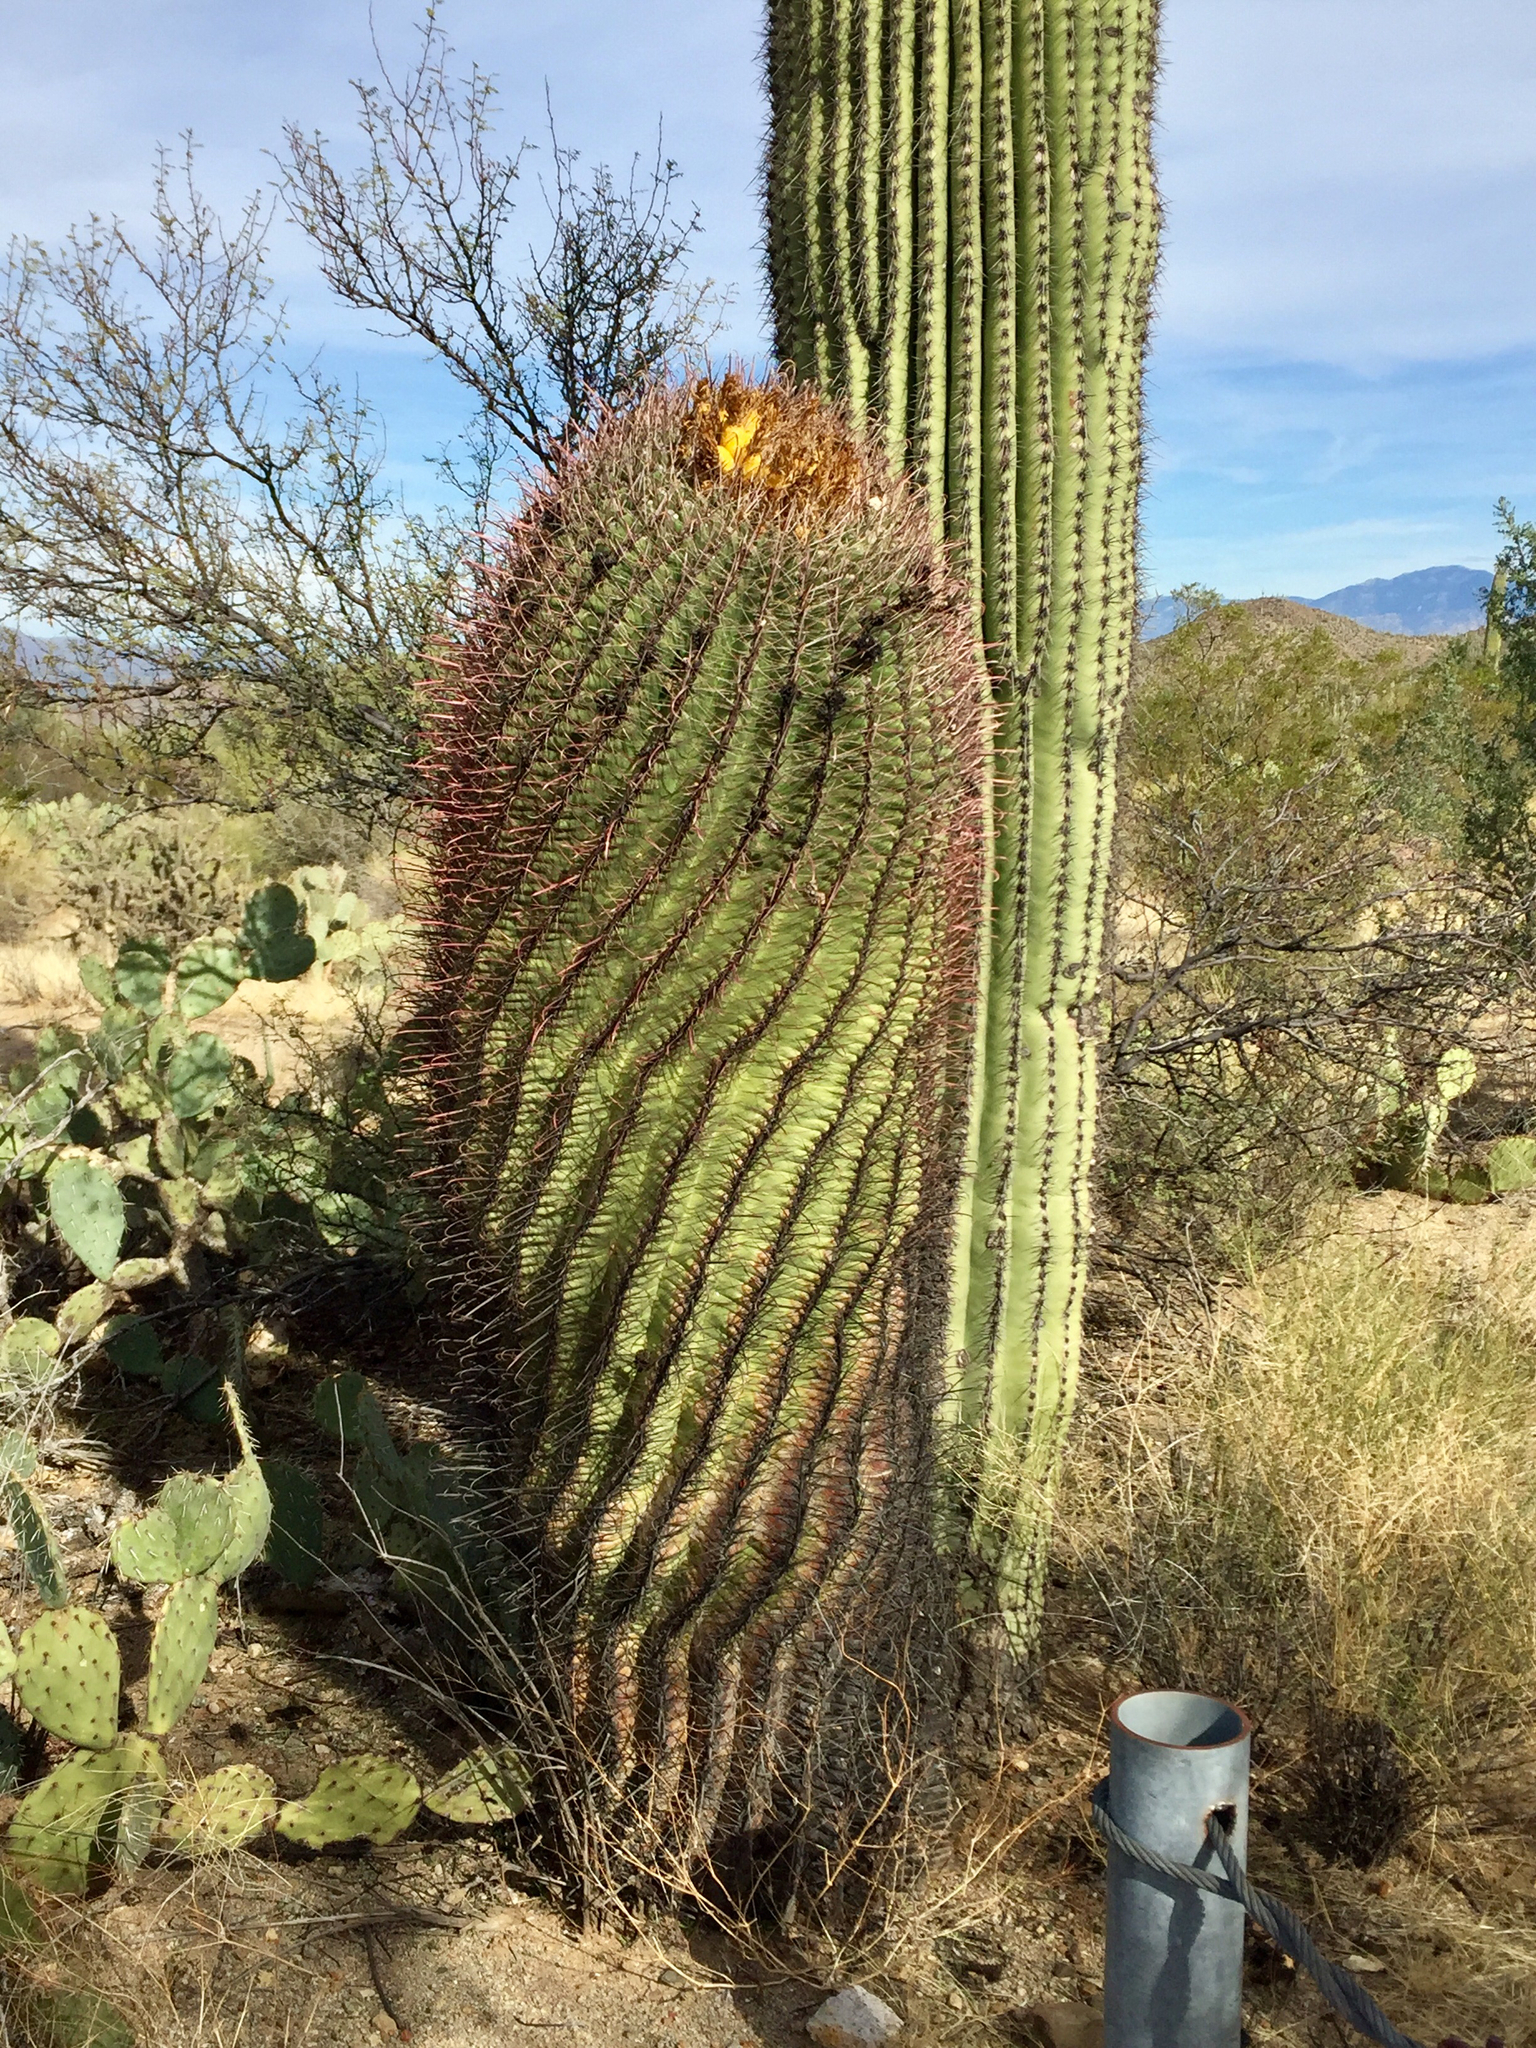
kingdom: Plantae
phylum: Tracheophyta
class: Magnoliopsida
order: Caryophyllales
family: Cactaceae
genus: Ferocactus
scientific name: Ferocactus wislizeni
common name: Candy barrel cactus
